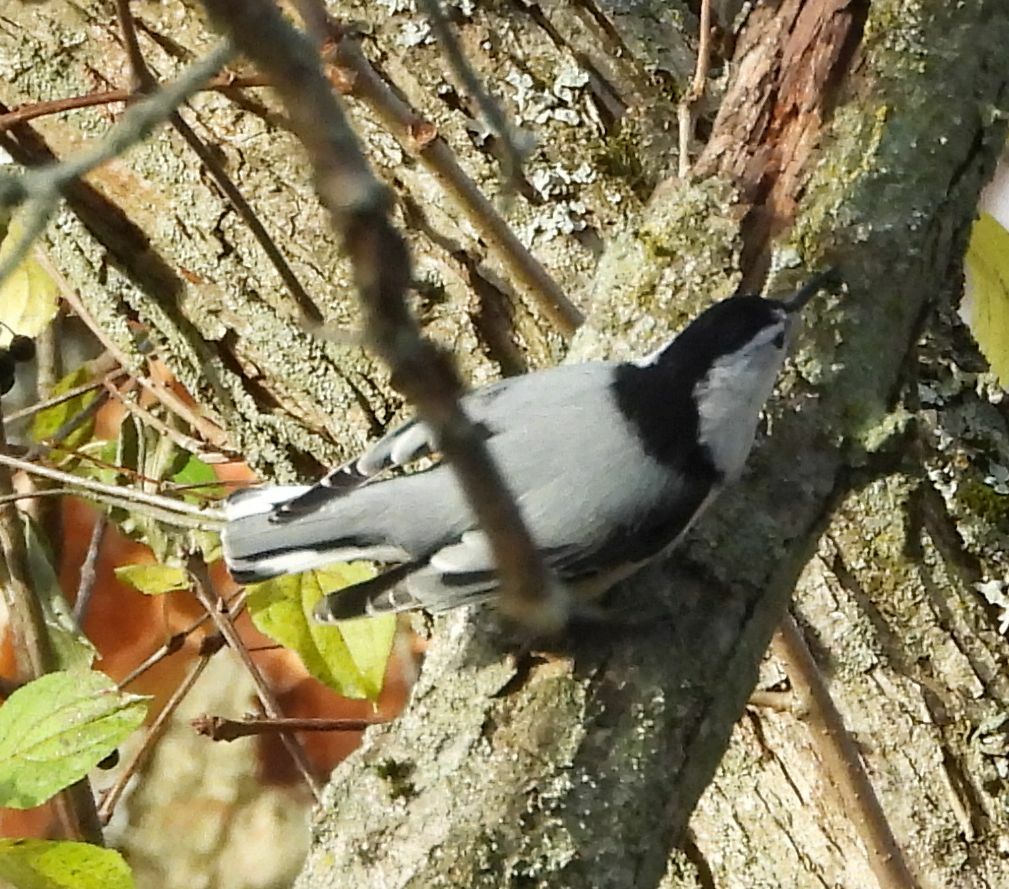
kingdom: Animalia
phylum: Chordata
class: Aves
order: Passeriformes
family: Sittidae
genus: Sitta
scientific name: Sitta carolinensis
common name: White-breasted nuthatch
